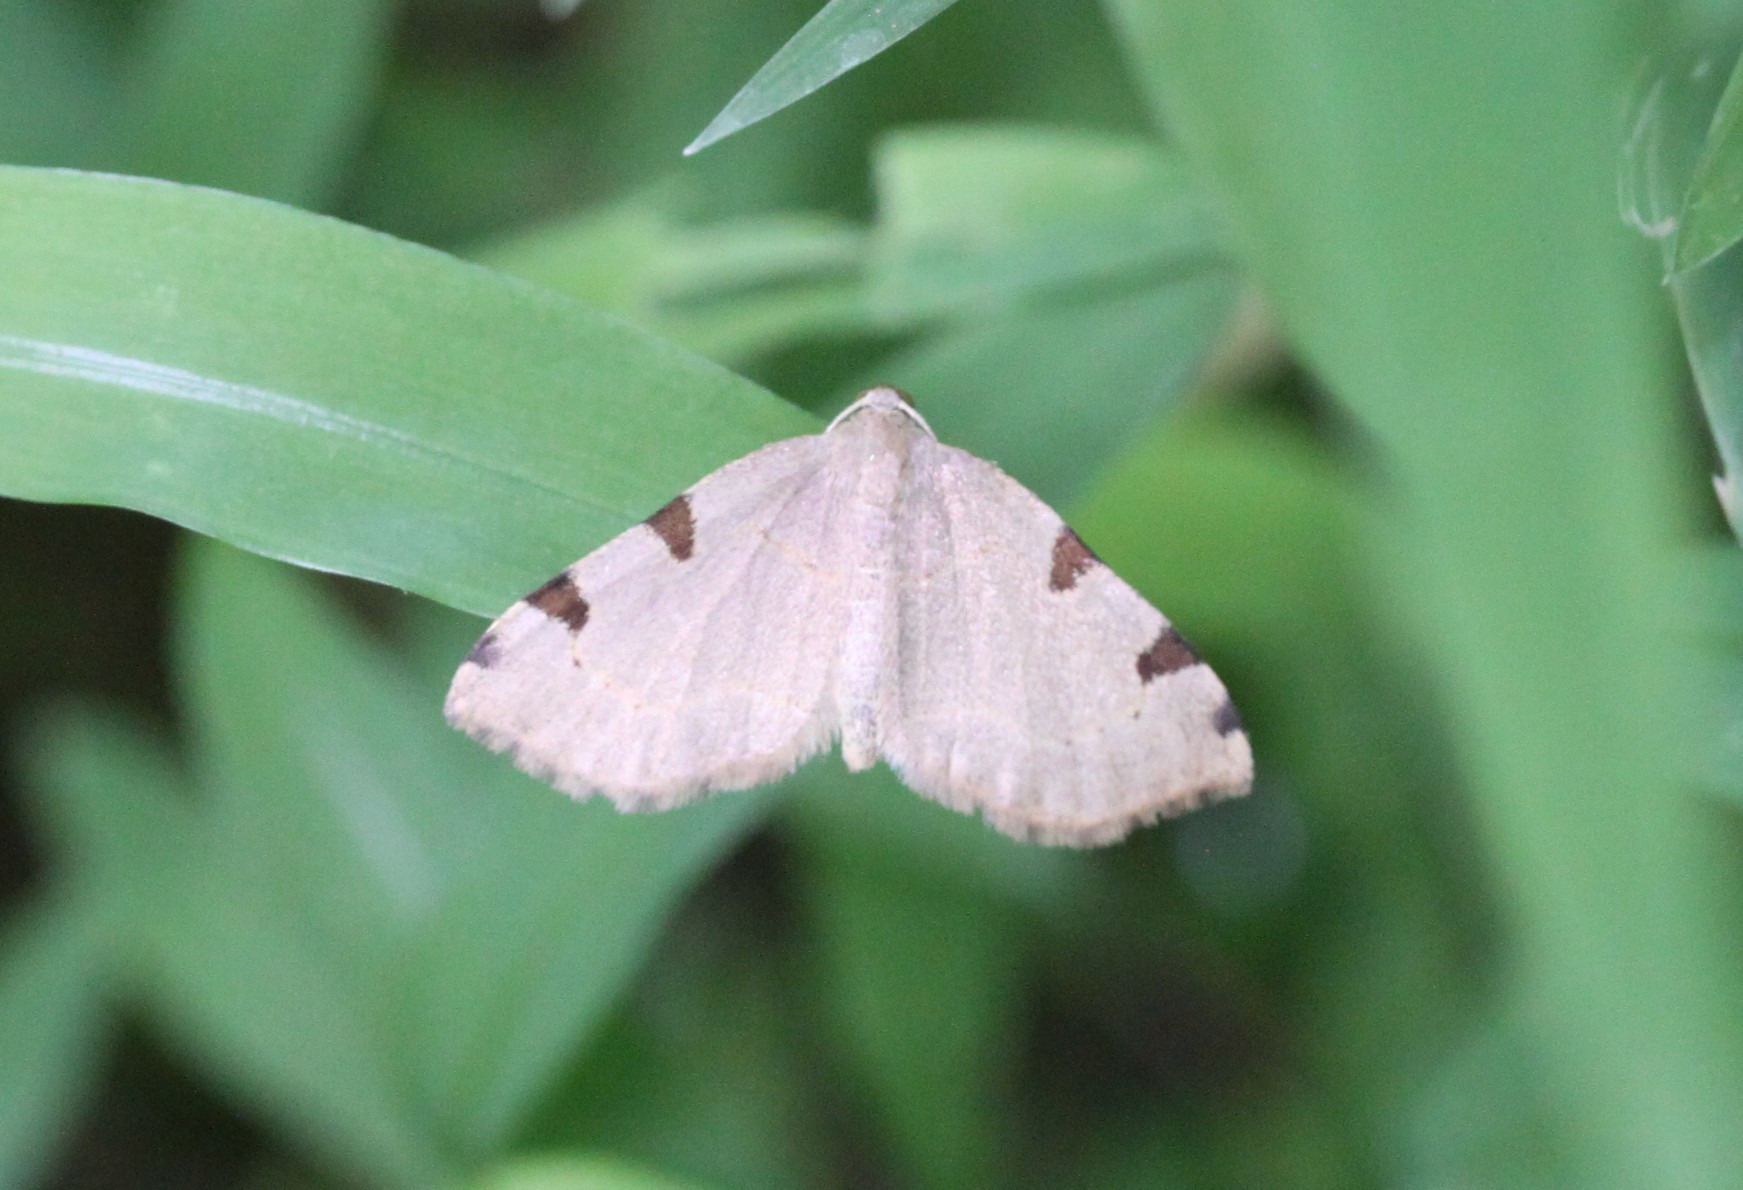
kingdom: Animalia
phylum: Arthropoda
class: Insecta
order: Lepidoptera
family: Geometridae
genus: Heterophleps
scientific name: Heterophleps triguttaria
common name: Three-spotted fillip
